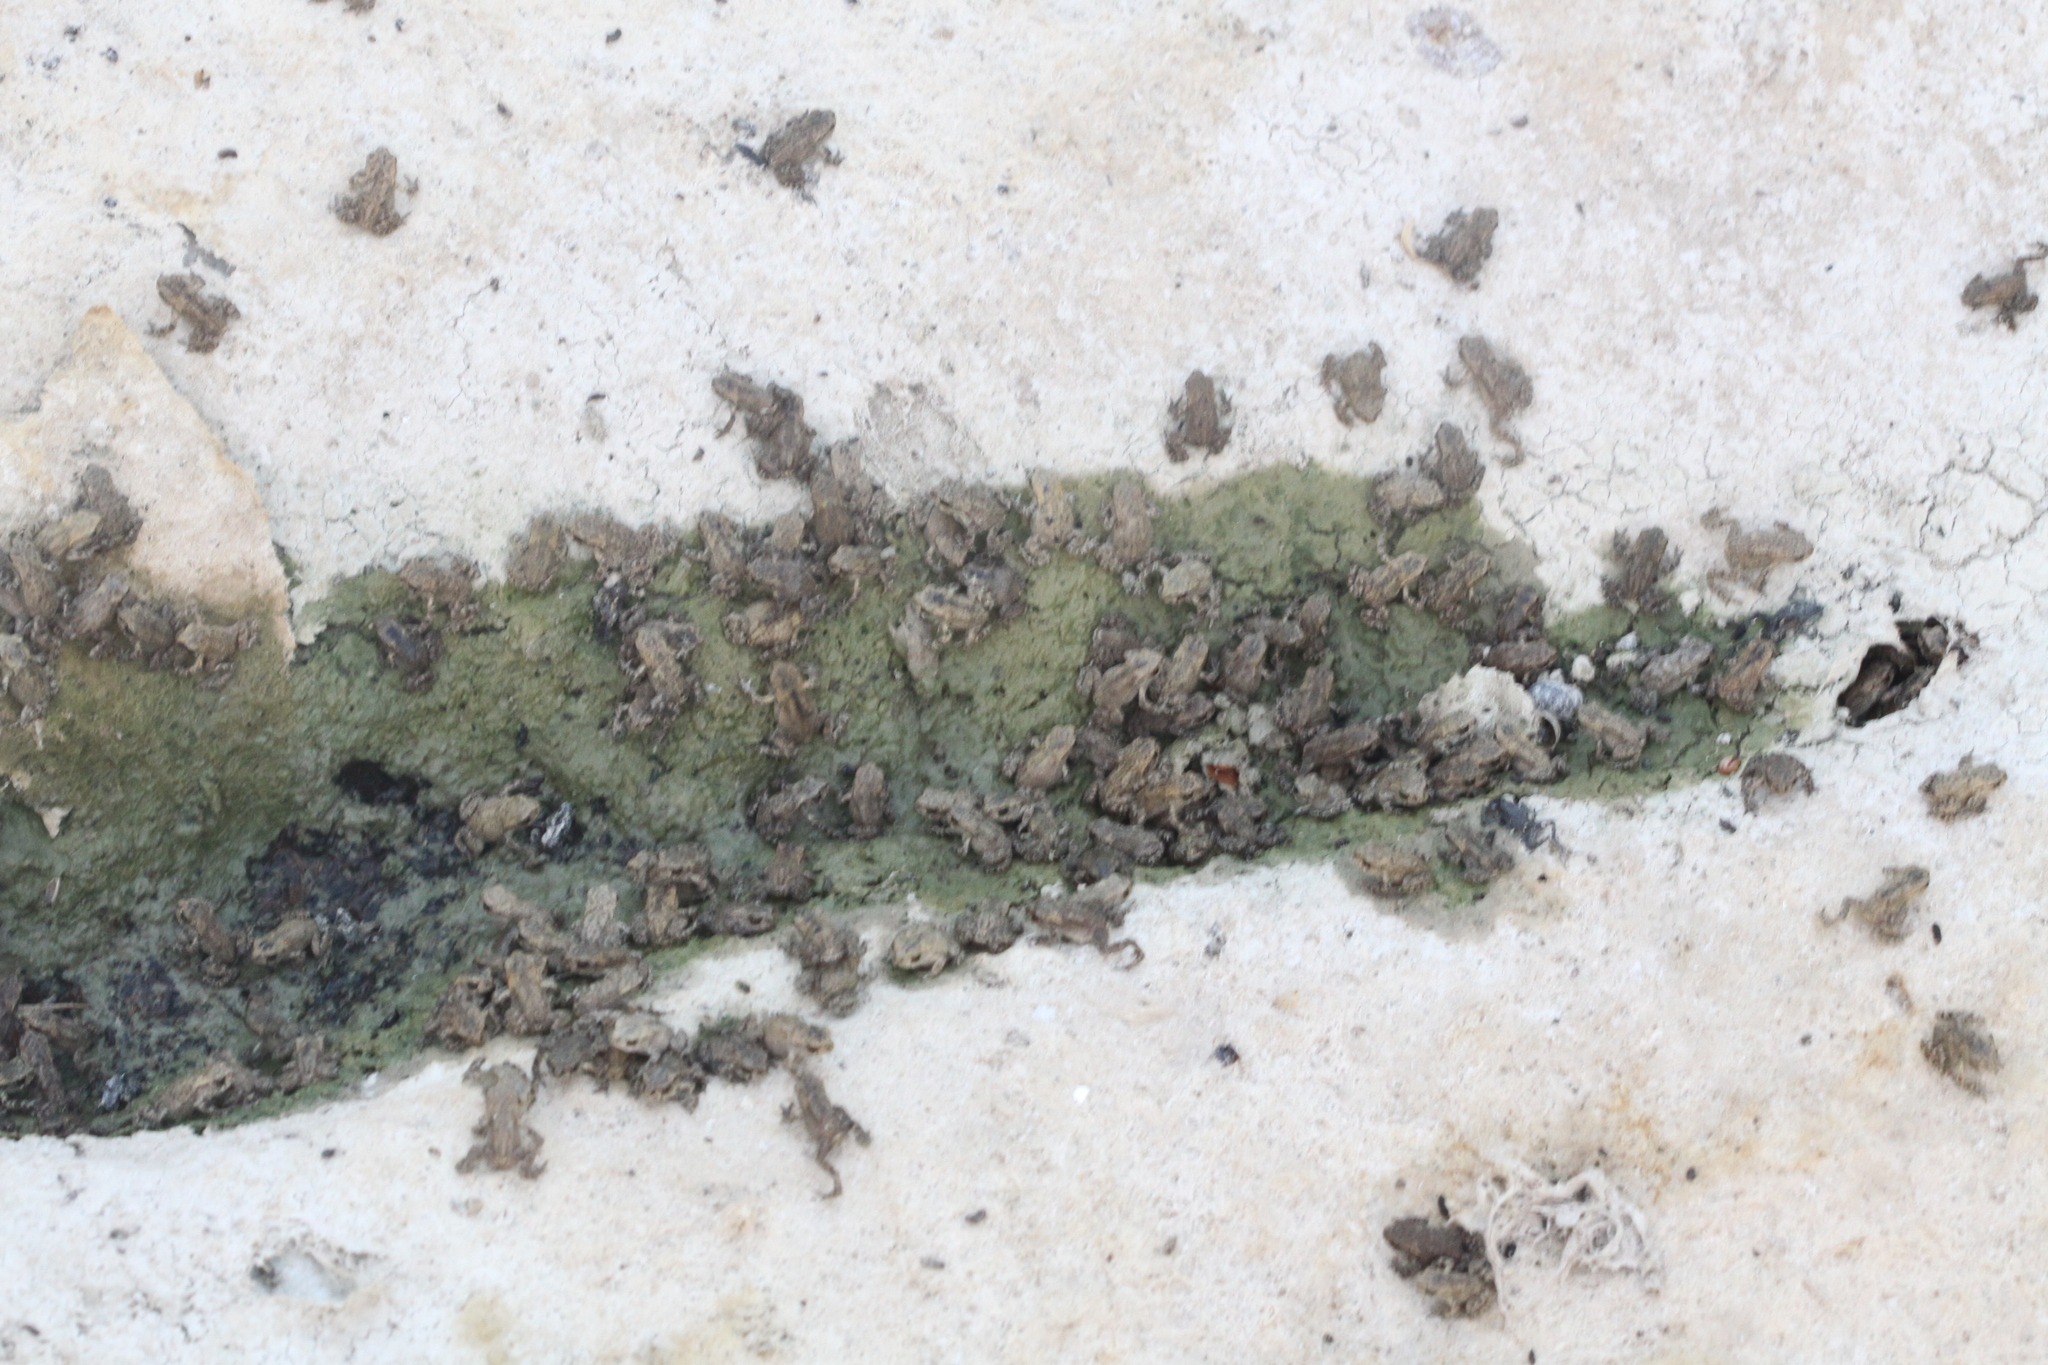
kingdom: Animalia
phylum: Chordata
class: Amphibia
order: Anura
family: Bufonidae
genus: Bufo
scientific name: Bufo spinosus
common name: Western common toad
